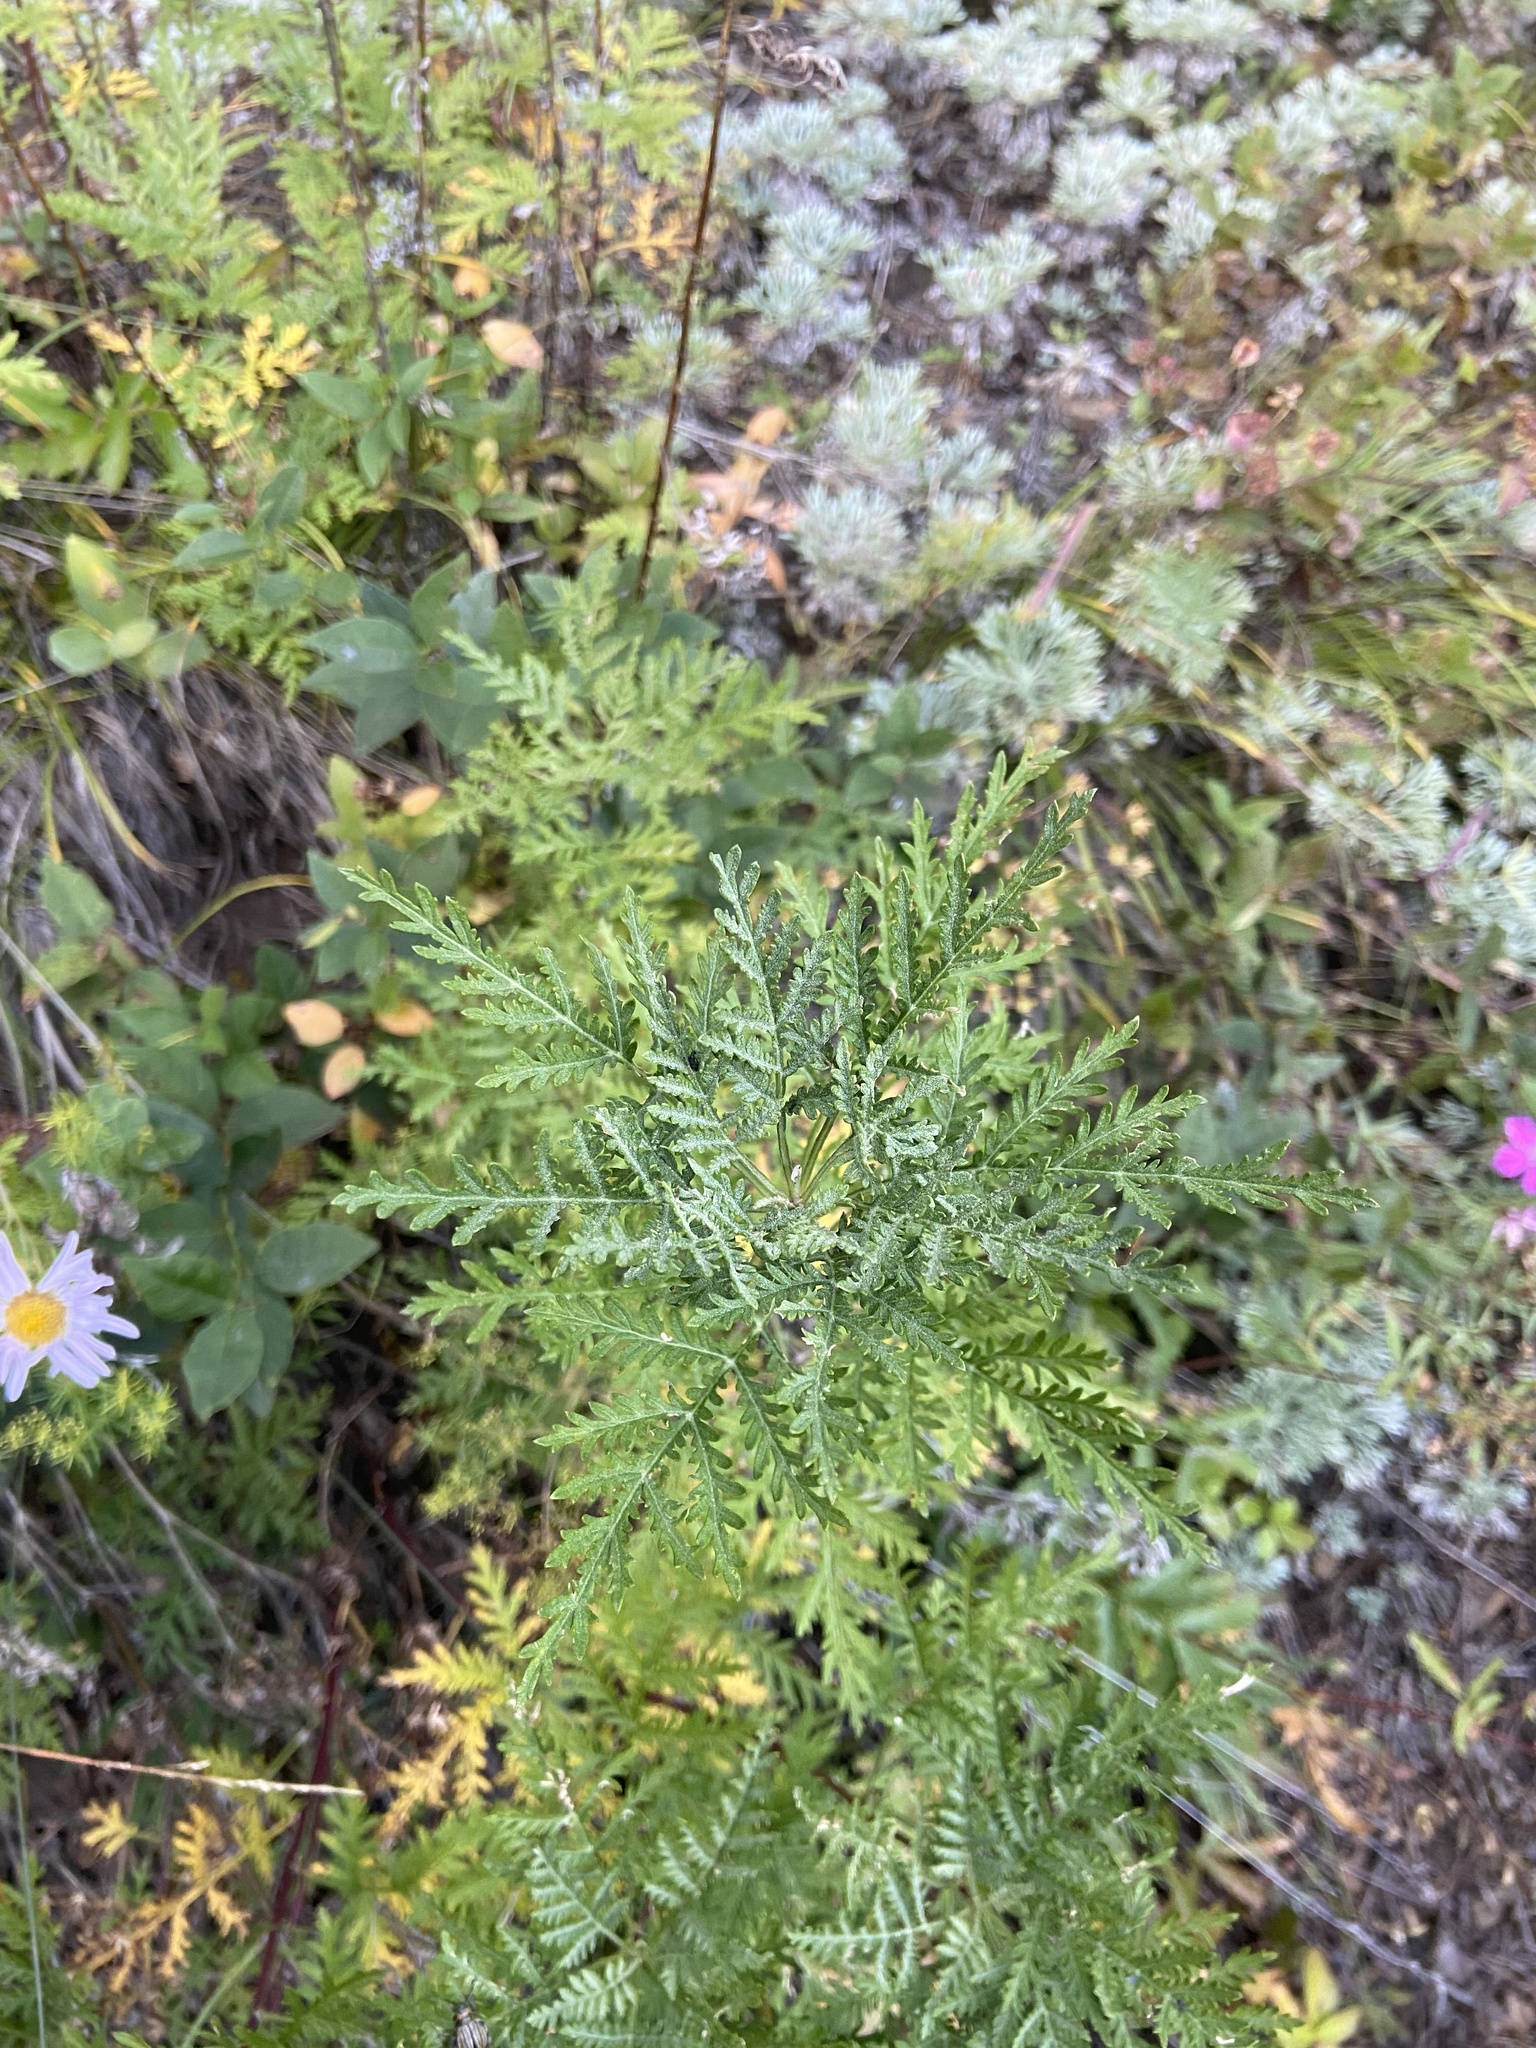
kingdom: Plantae
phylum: Tracheophyta
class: Magnoliopsida
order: Asterales
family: Asteraceae
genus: Artemisia
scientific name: Artemisia gmelinii
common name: Gmelin's wormwood
